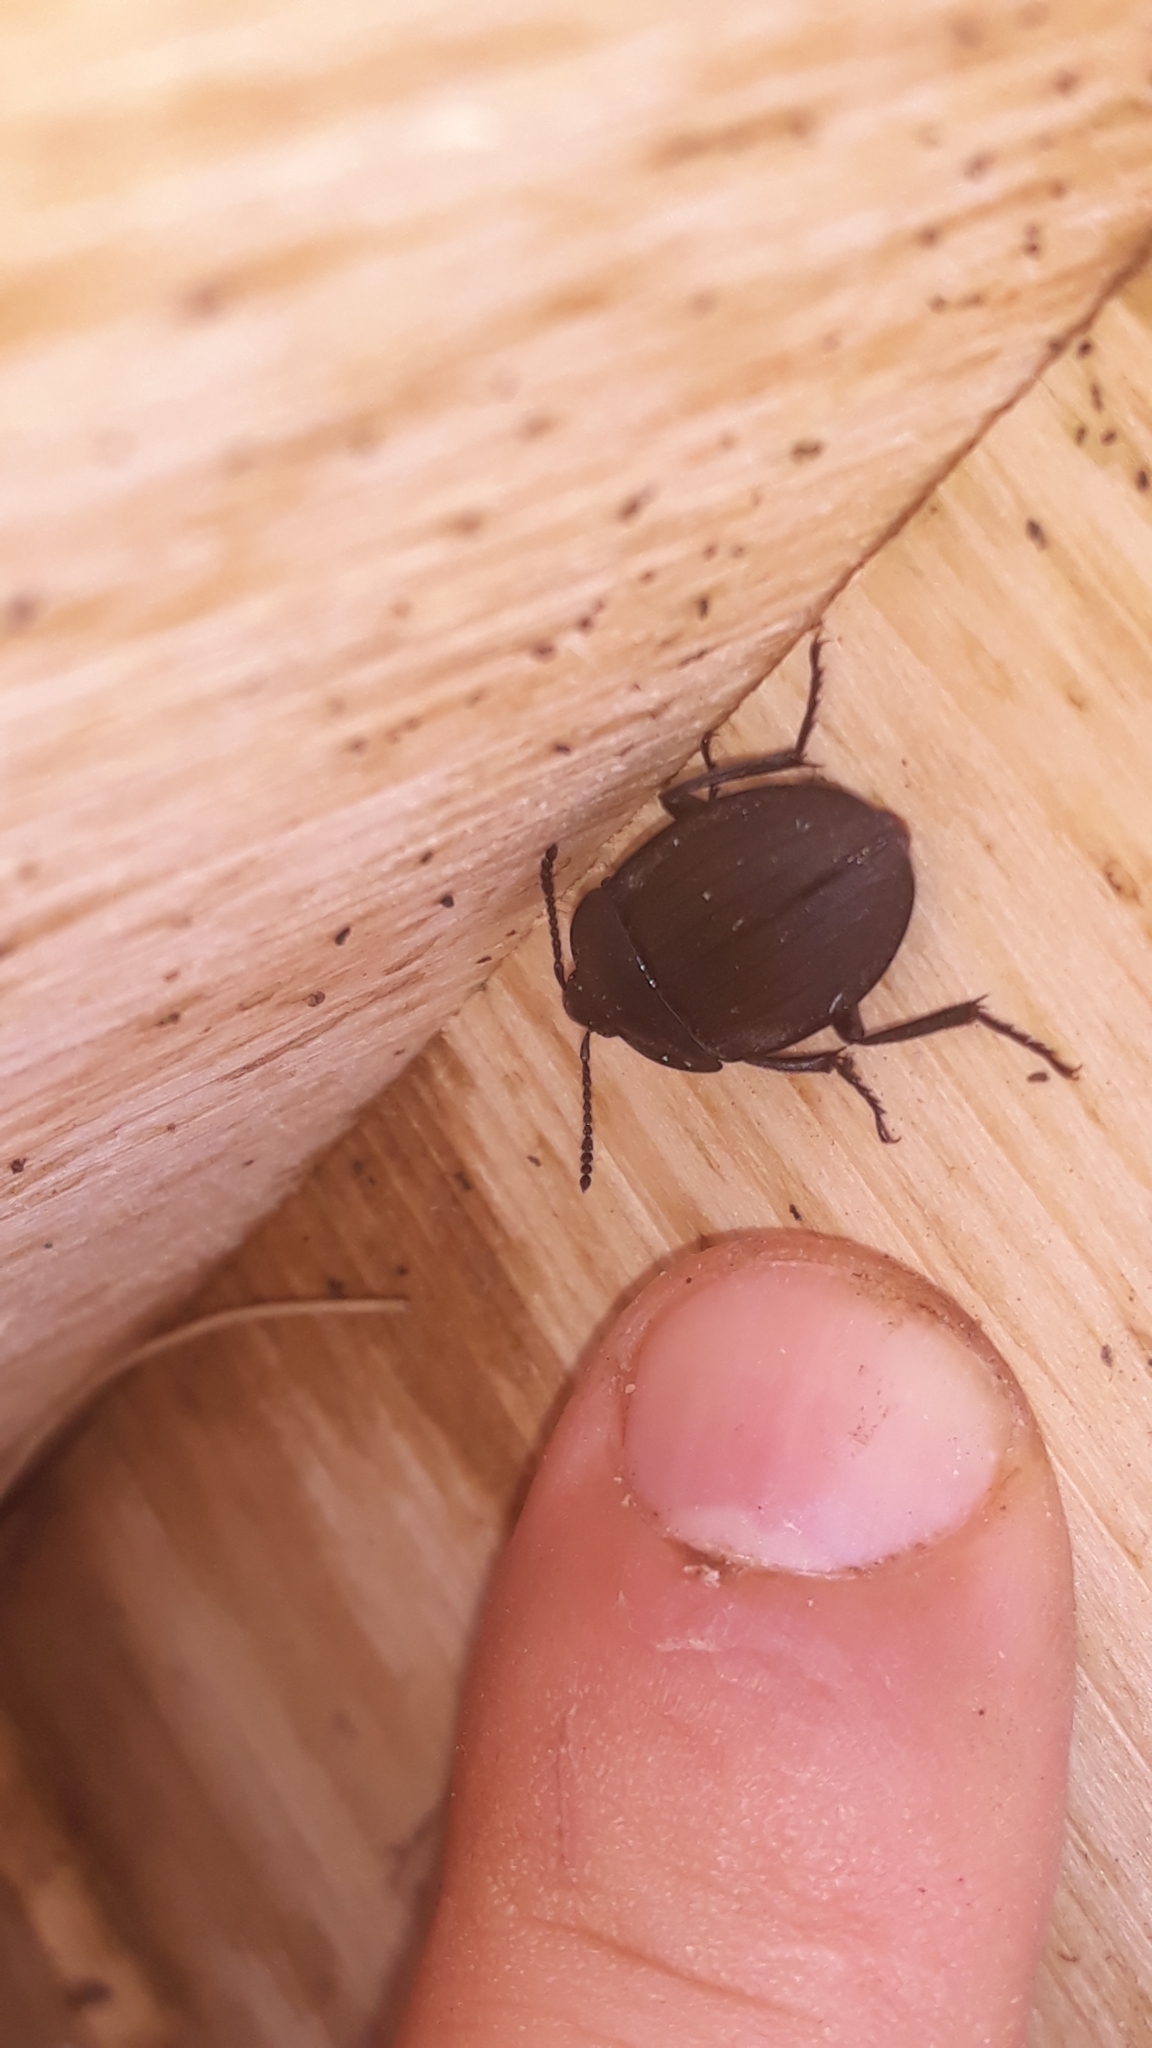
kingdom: Animalia
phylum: Arthropoda
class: Insecta
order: Coleoptera
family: Staphylinidae
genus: Silpha
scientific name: Silpha carinata
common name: Silphid beetle
